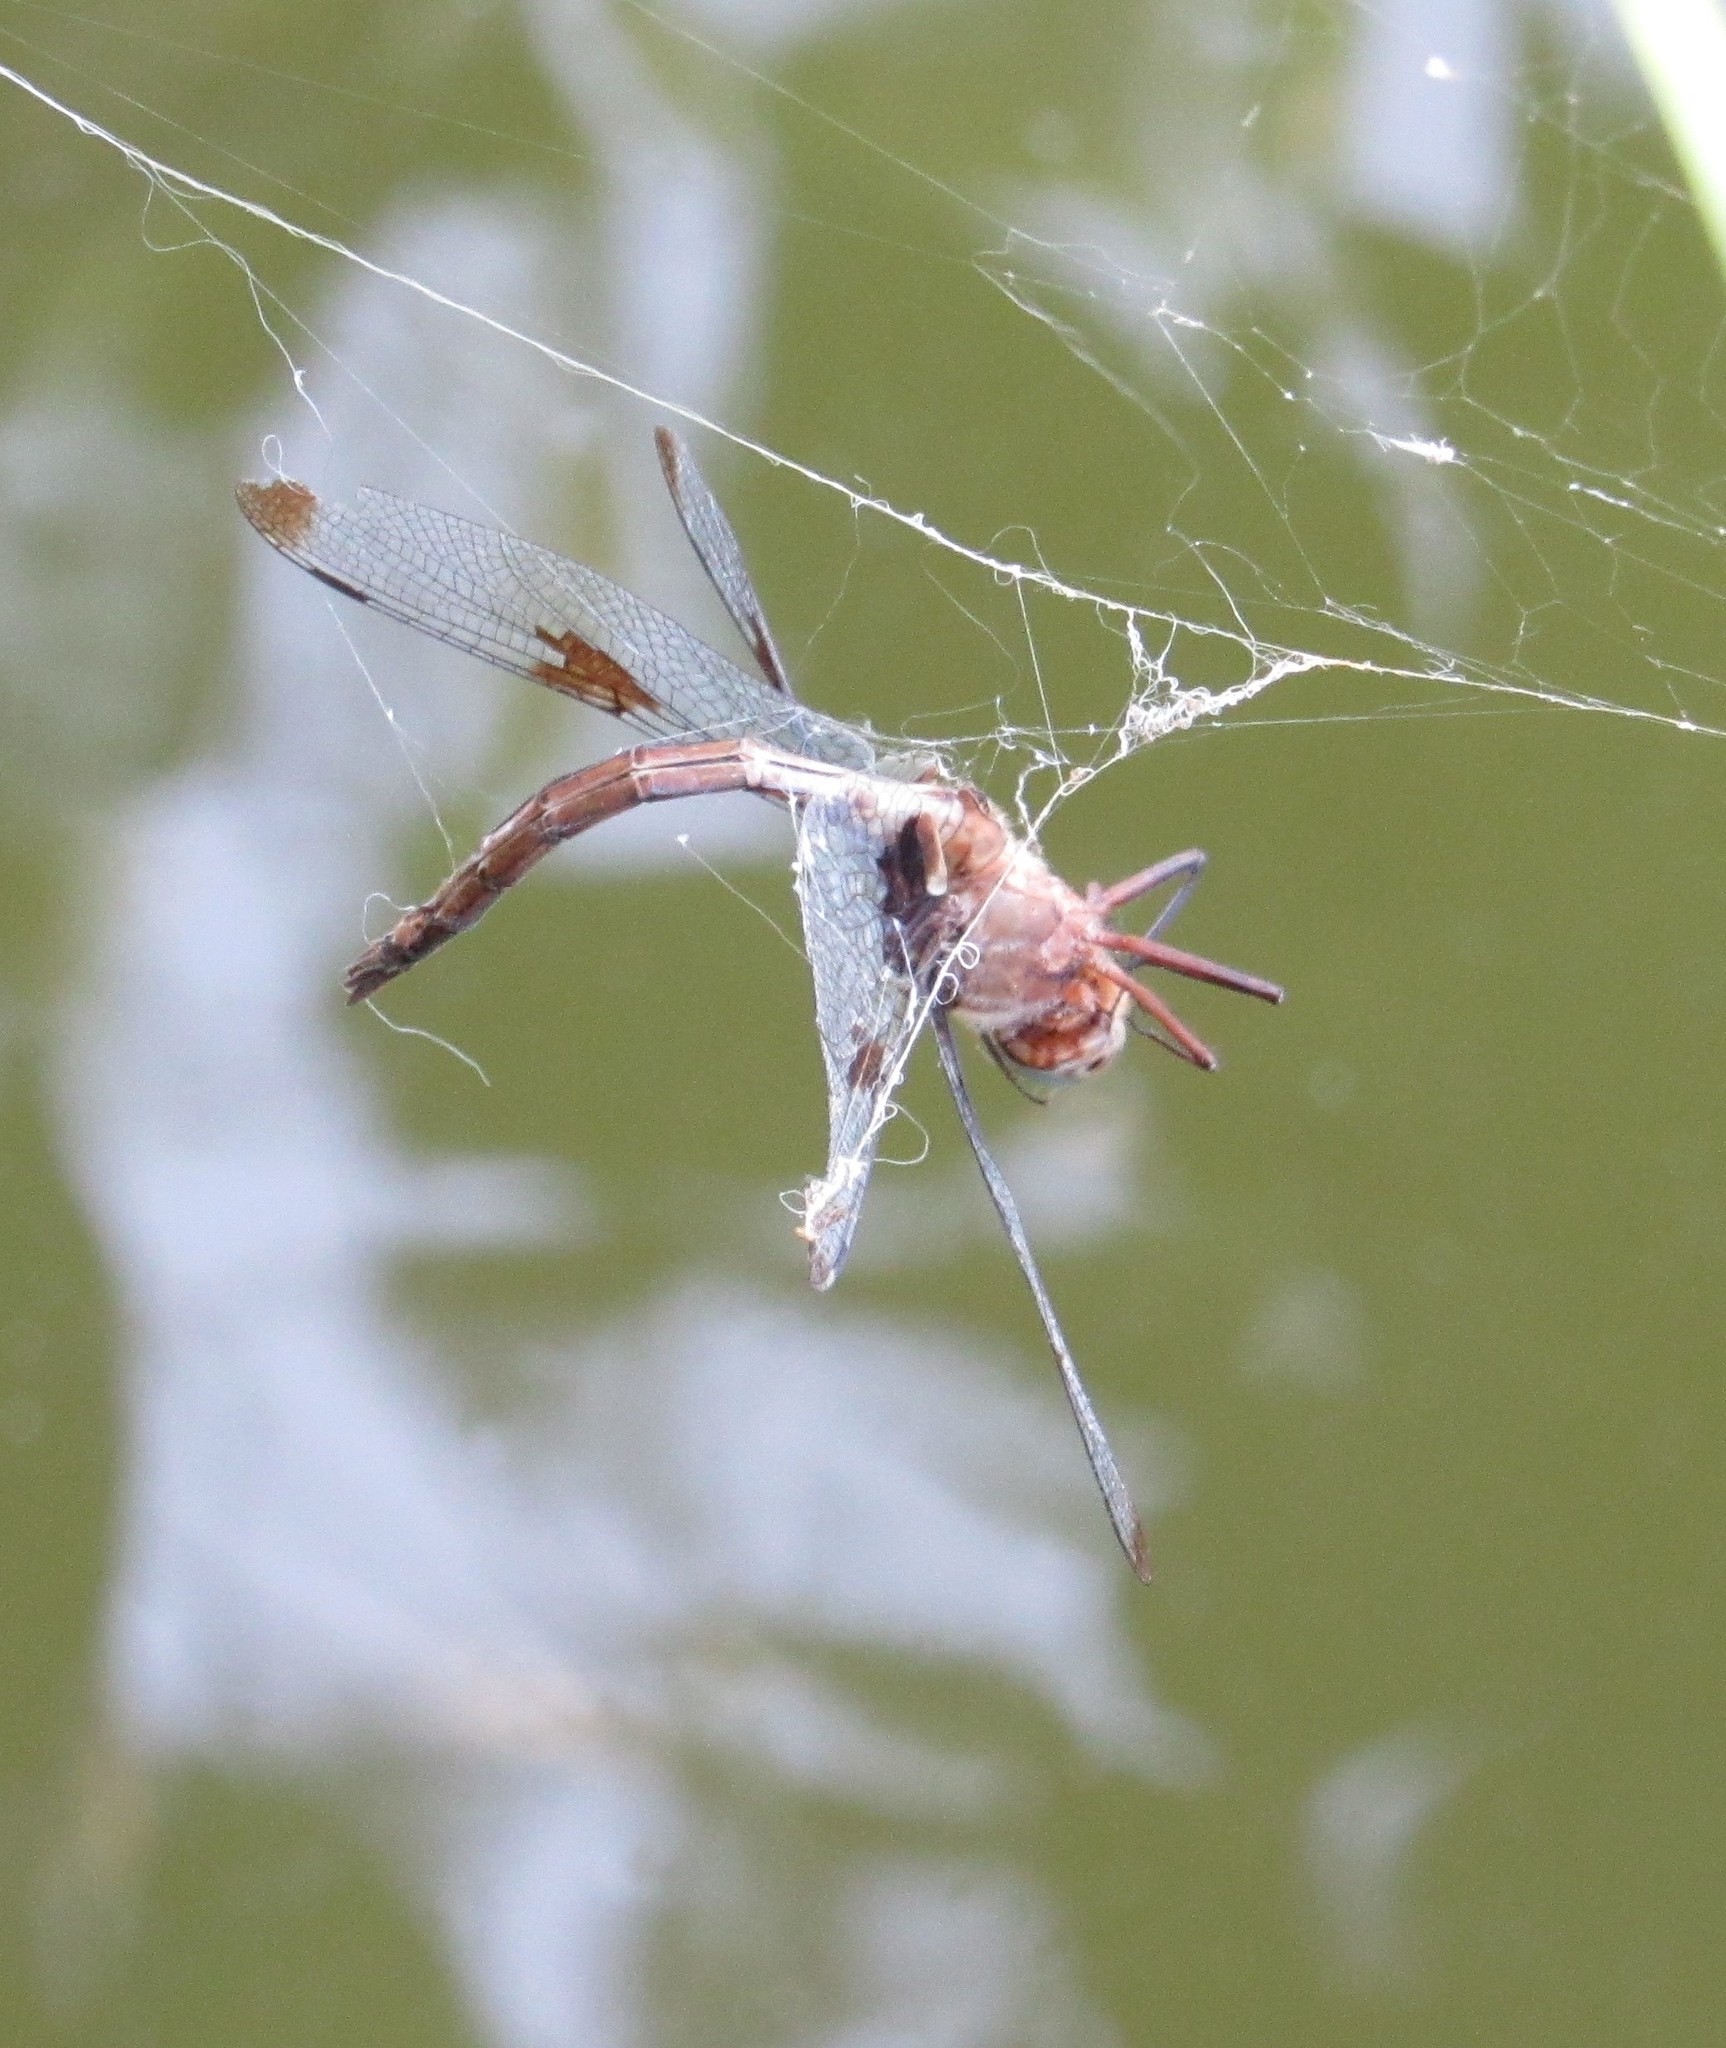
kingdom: Animalia
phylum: Arthropoda
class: Insecta
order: Odonata
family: Corduliidae
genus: Epitheca
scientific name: Epitheca princeps
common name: Prince baskettail
